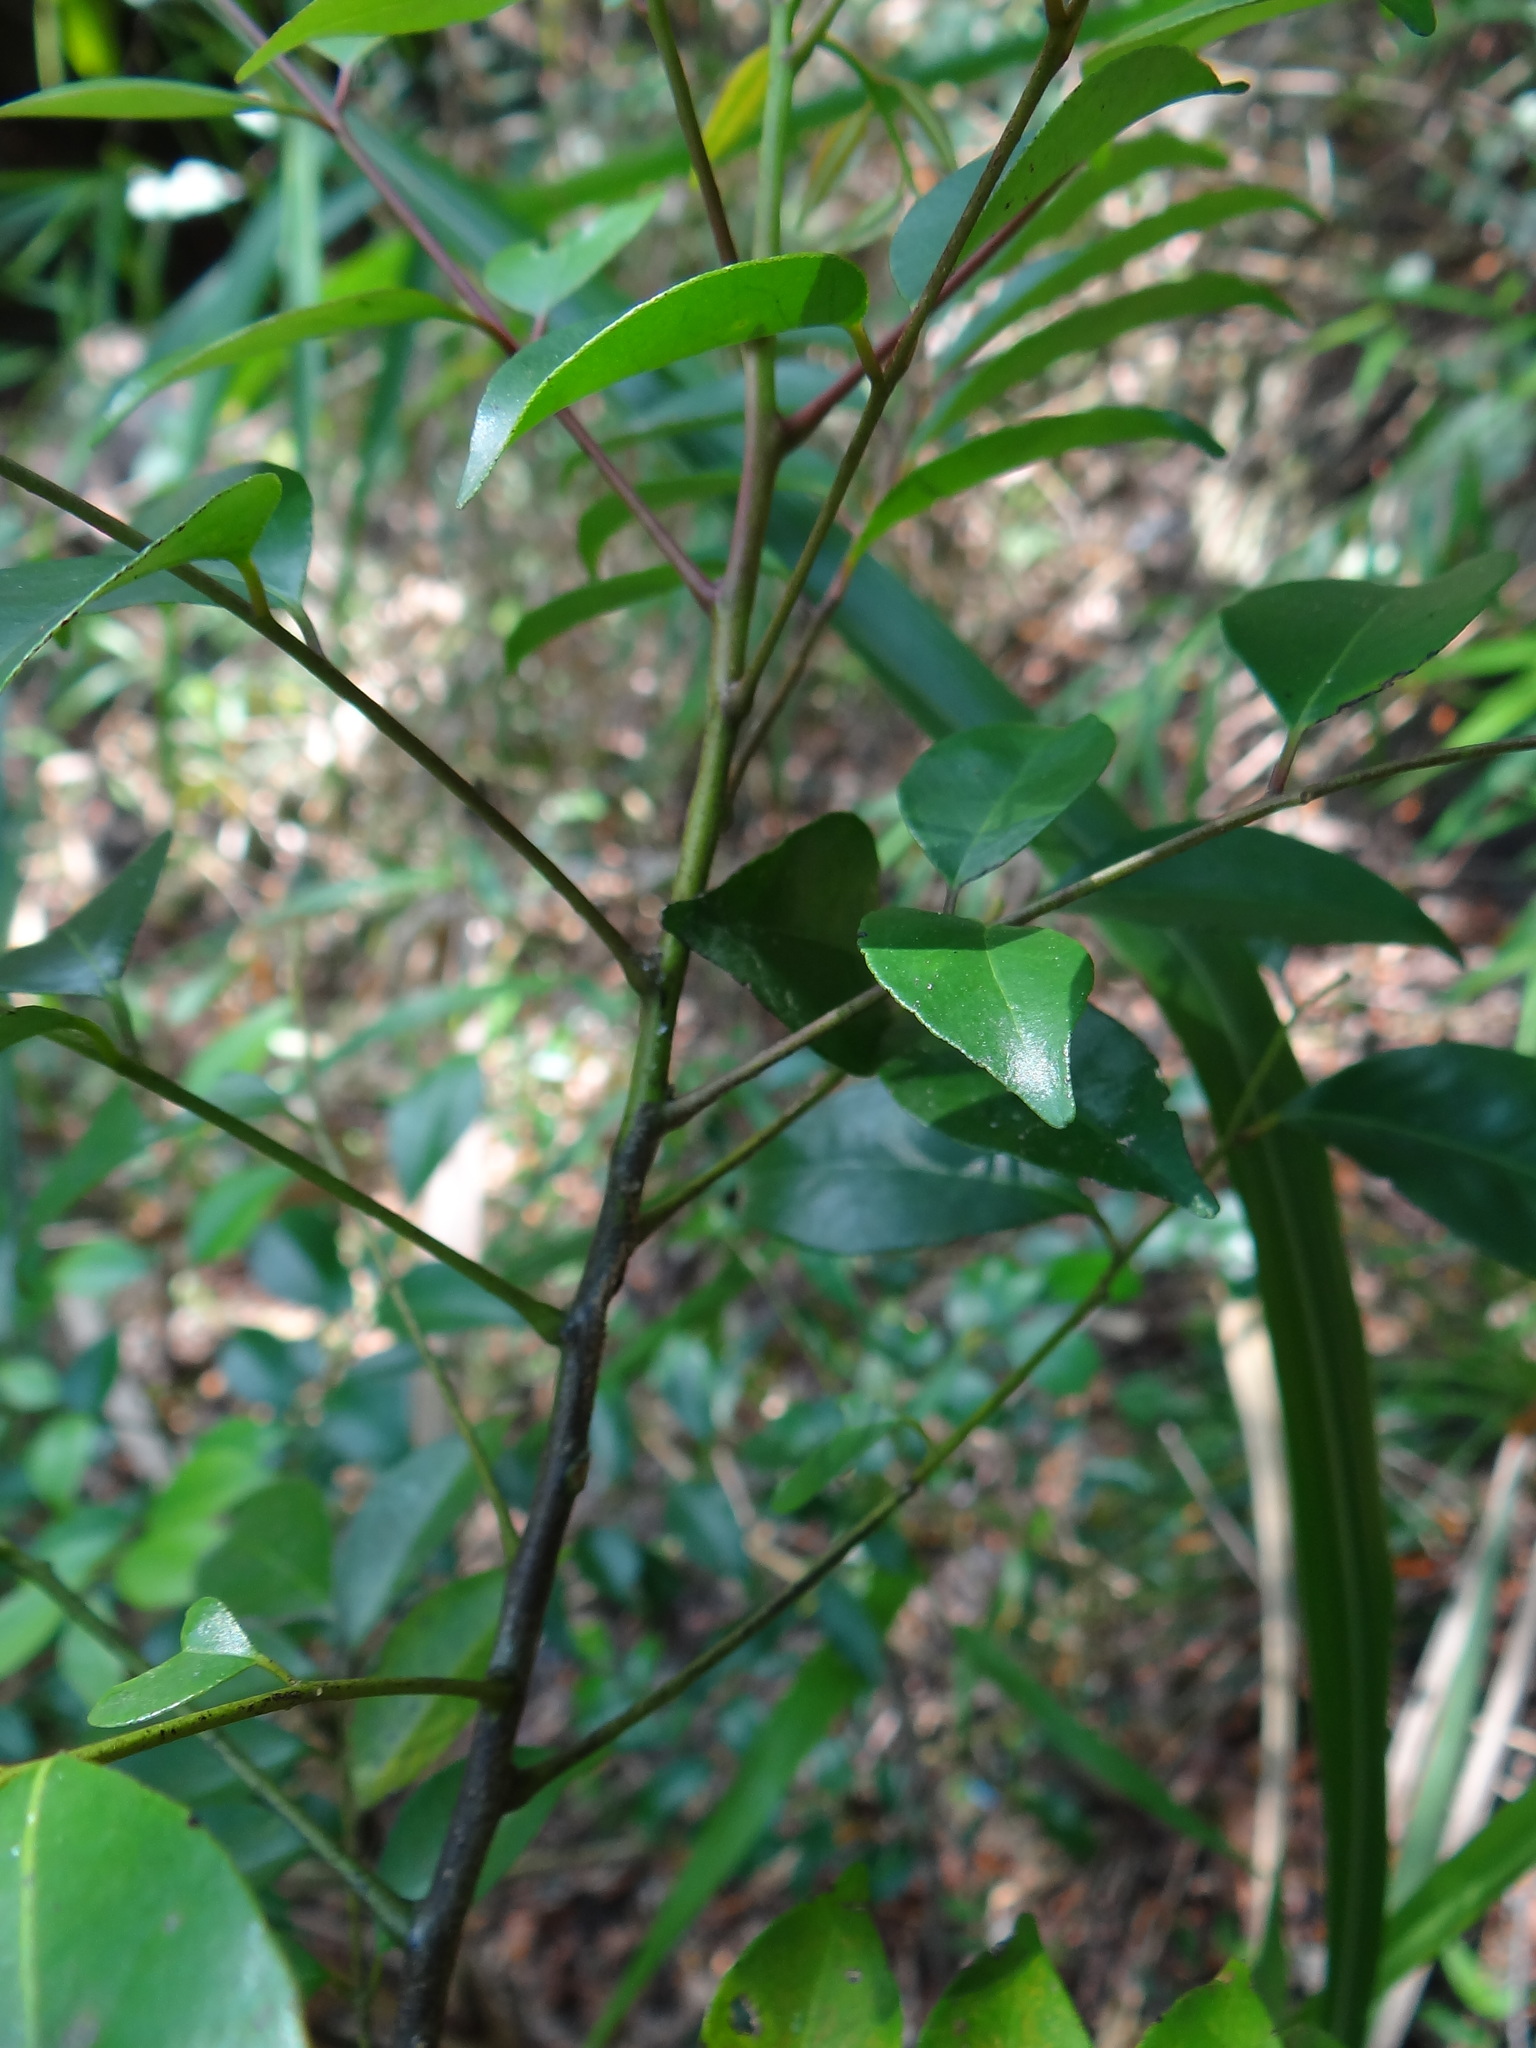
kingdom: Plantae
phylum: Tracheophyta
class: Magnoliopsida
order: Sapindales
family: Rutaceae
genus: Murraya
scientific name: Murraya euchrestifolia
